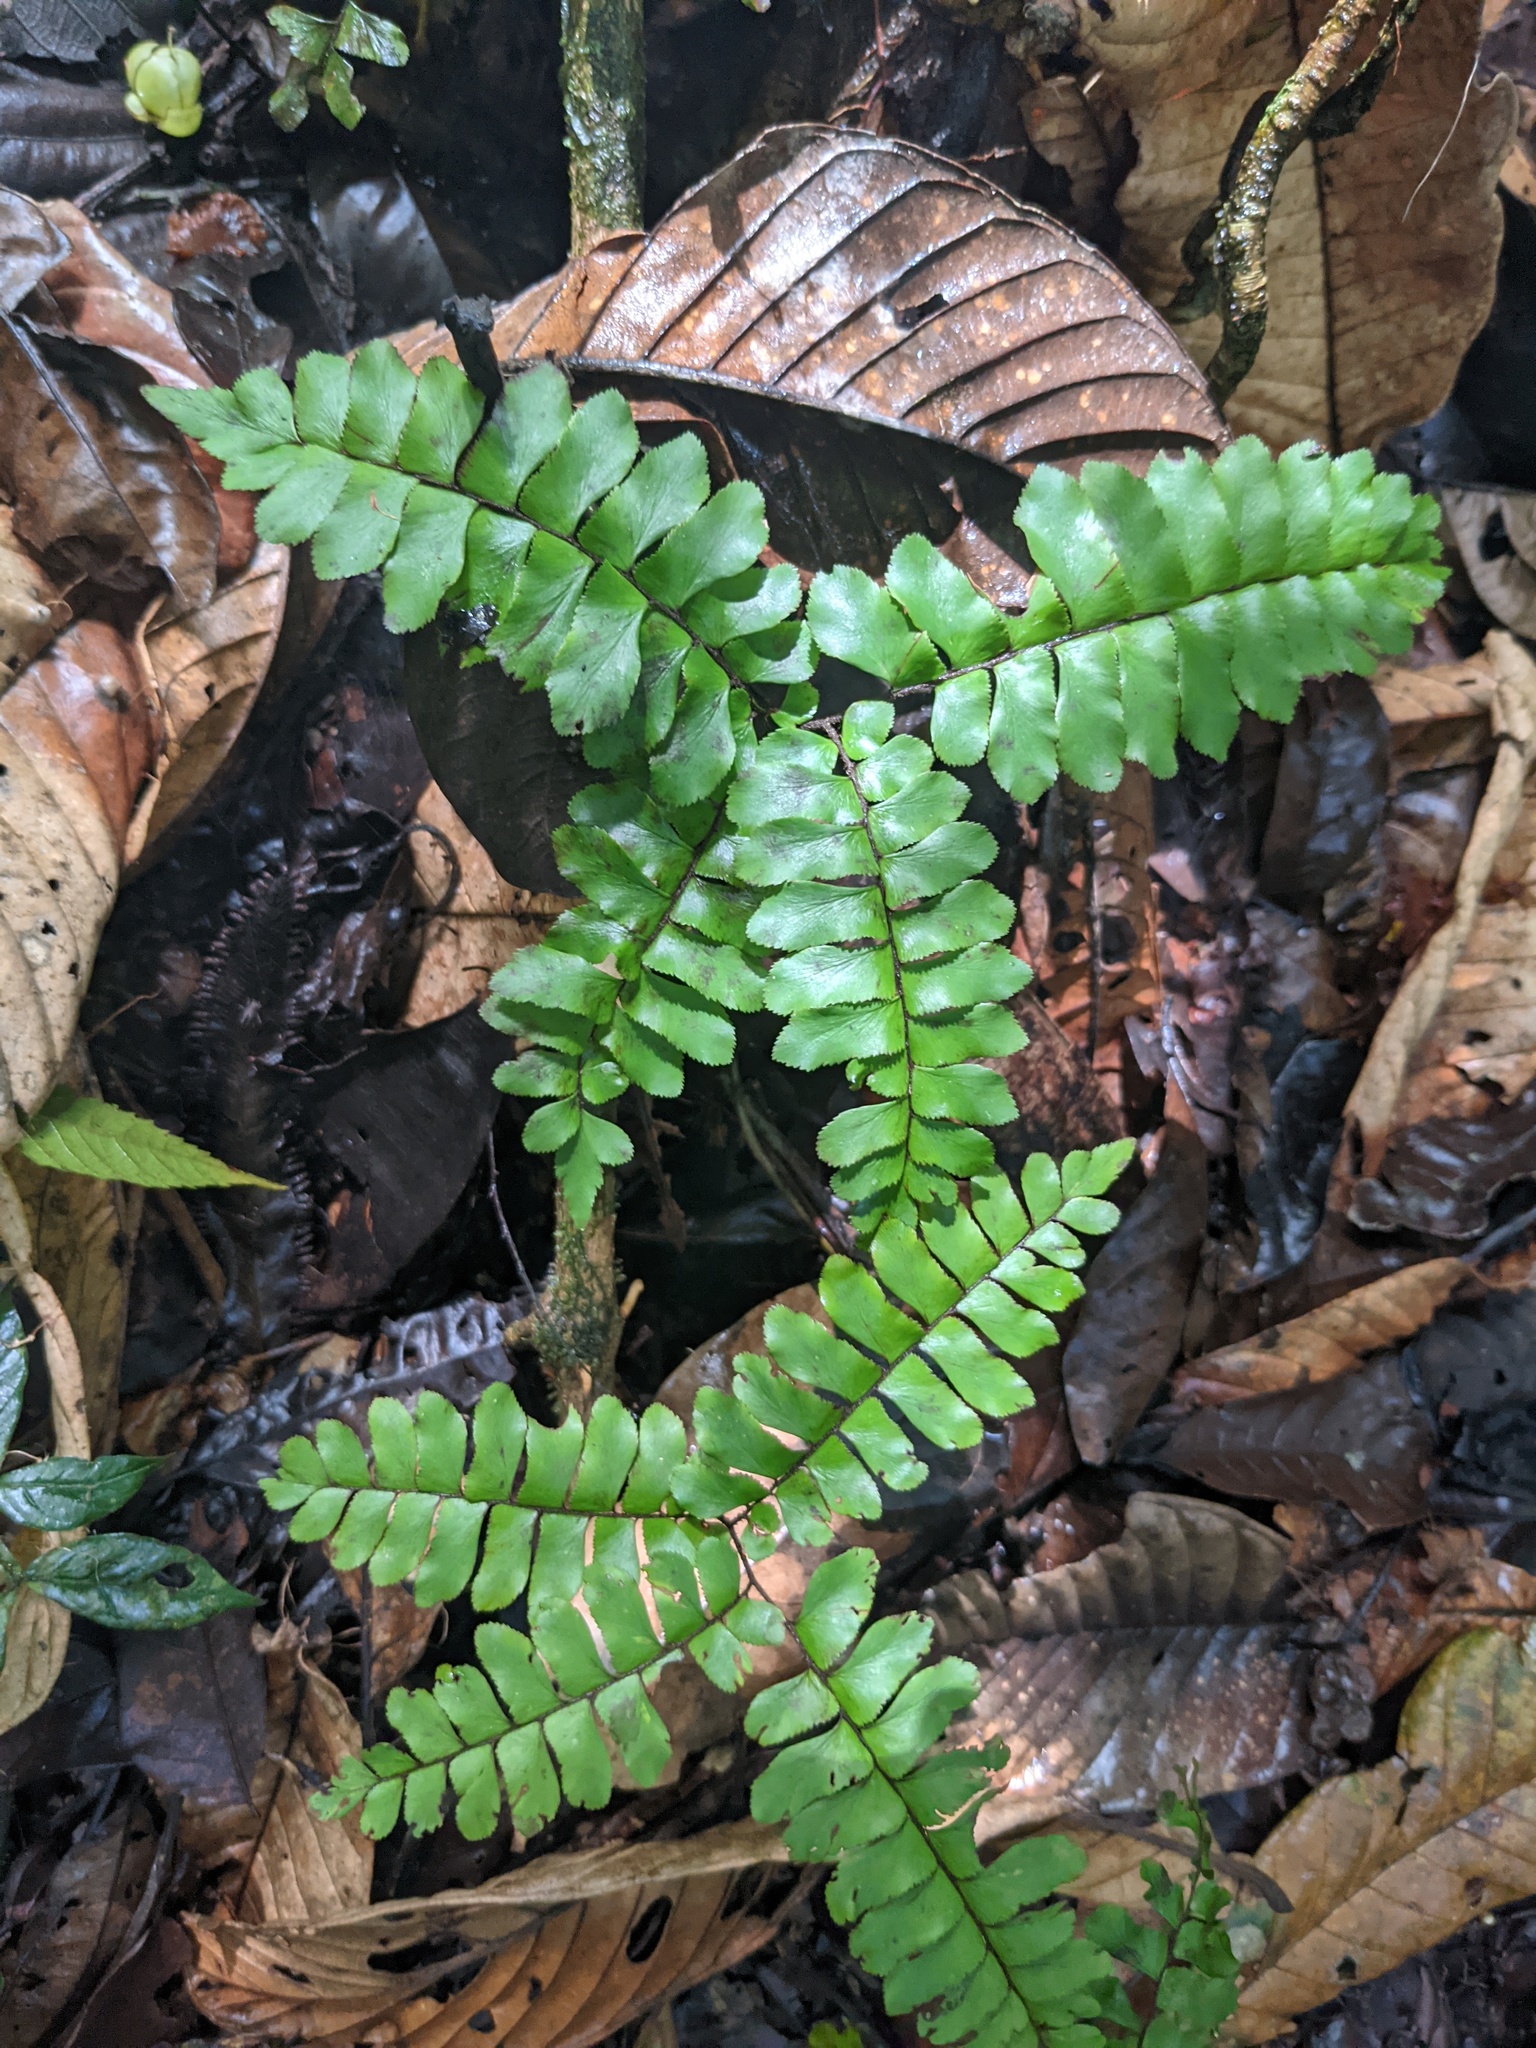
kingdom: Plantae
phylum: Tracheophyta
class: Polypodiopsida
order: Polypodiales
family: Pteridaceae
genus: Adiantum
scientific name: Adiantum humile
